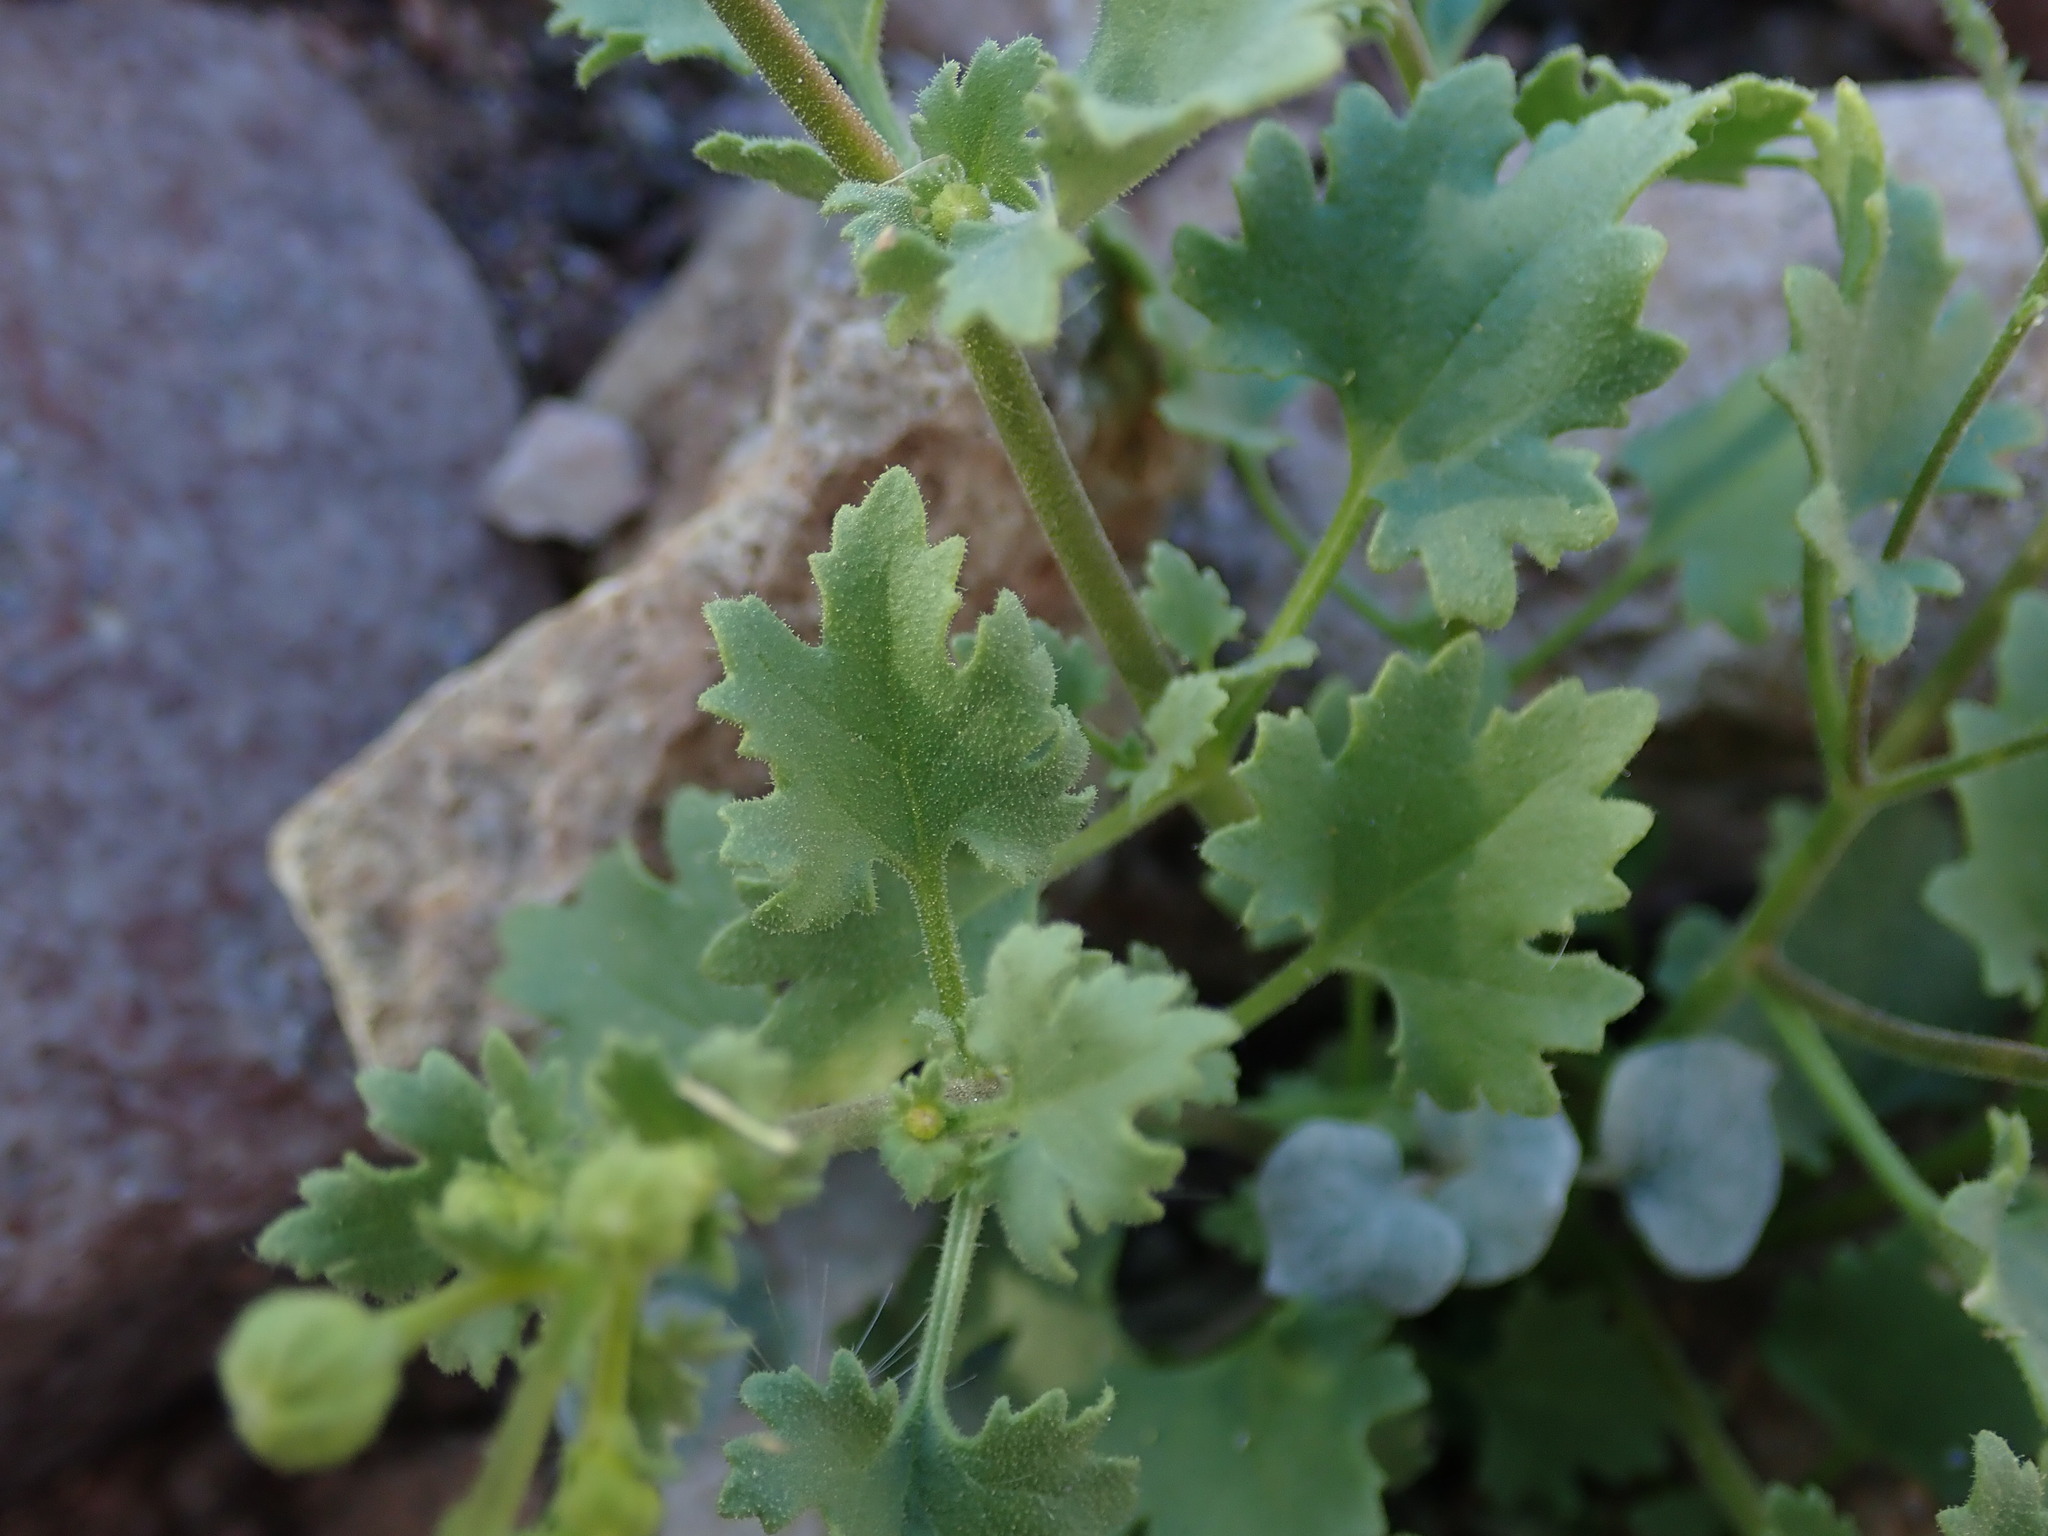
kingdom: Plantae
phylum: Tracheophyta
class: Magnoliopsida
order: Asterales
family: Asteraceae
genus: Laphamia
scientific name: Laphamia emoryi
